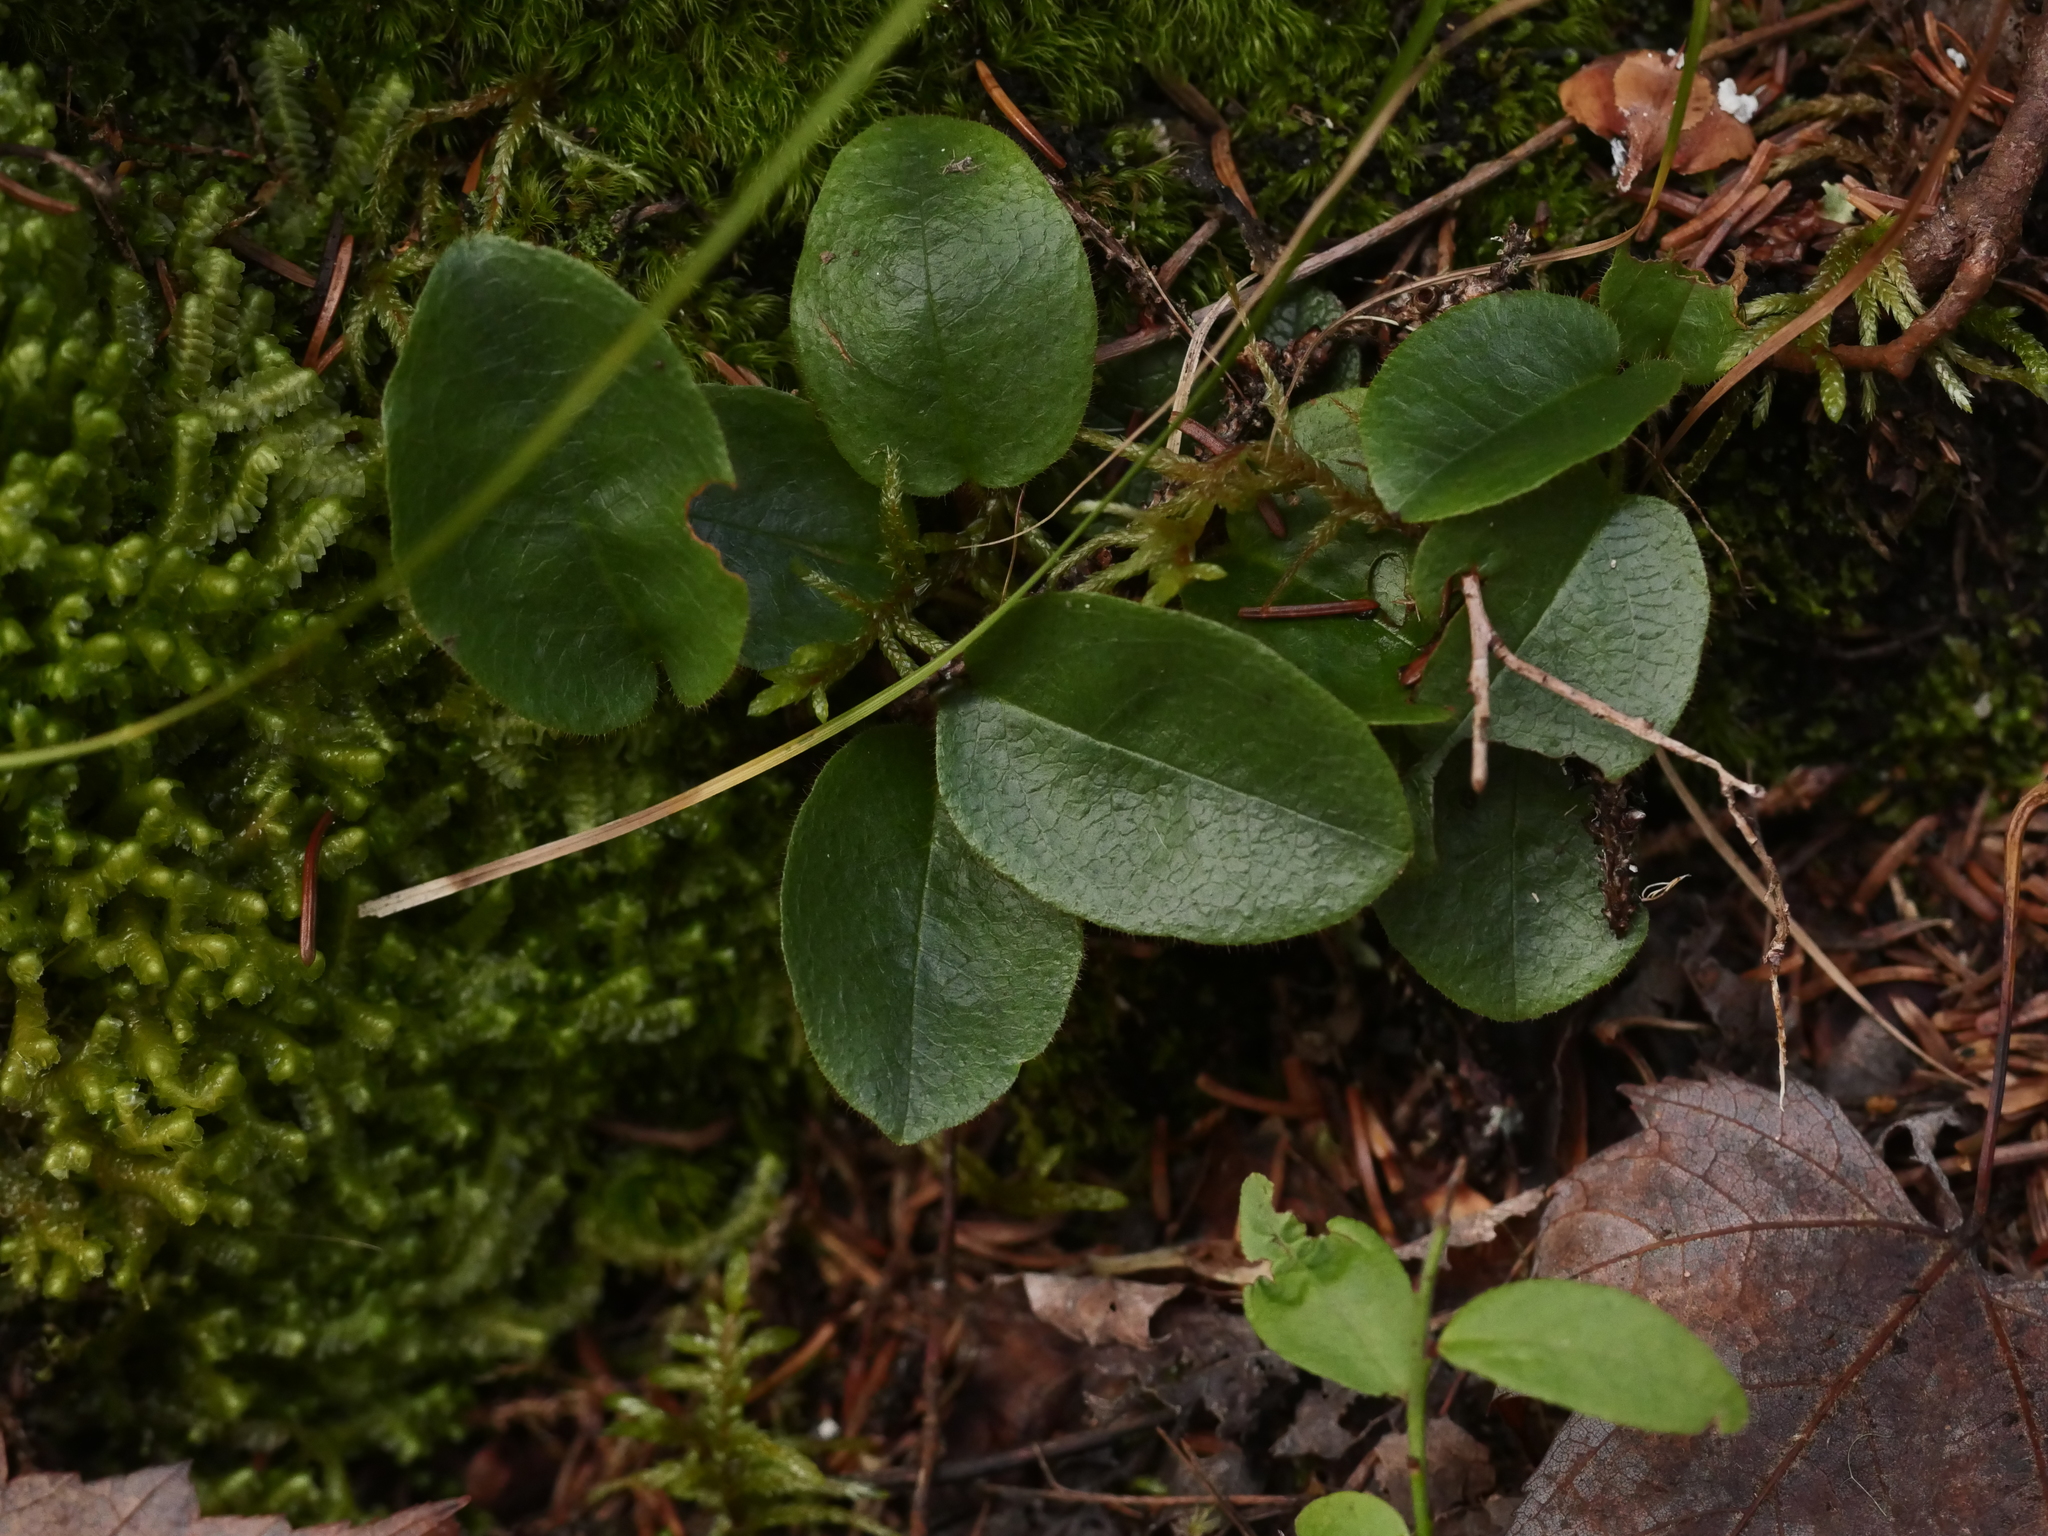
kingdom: Plantae
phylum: Tracheophyta
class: Magnoliopsida
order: Ericales
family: Ericaceae
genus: Epigaea
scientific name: Epigaea repens
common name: Gravelroot
